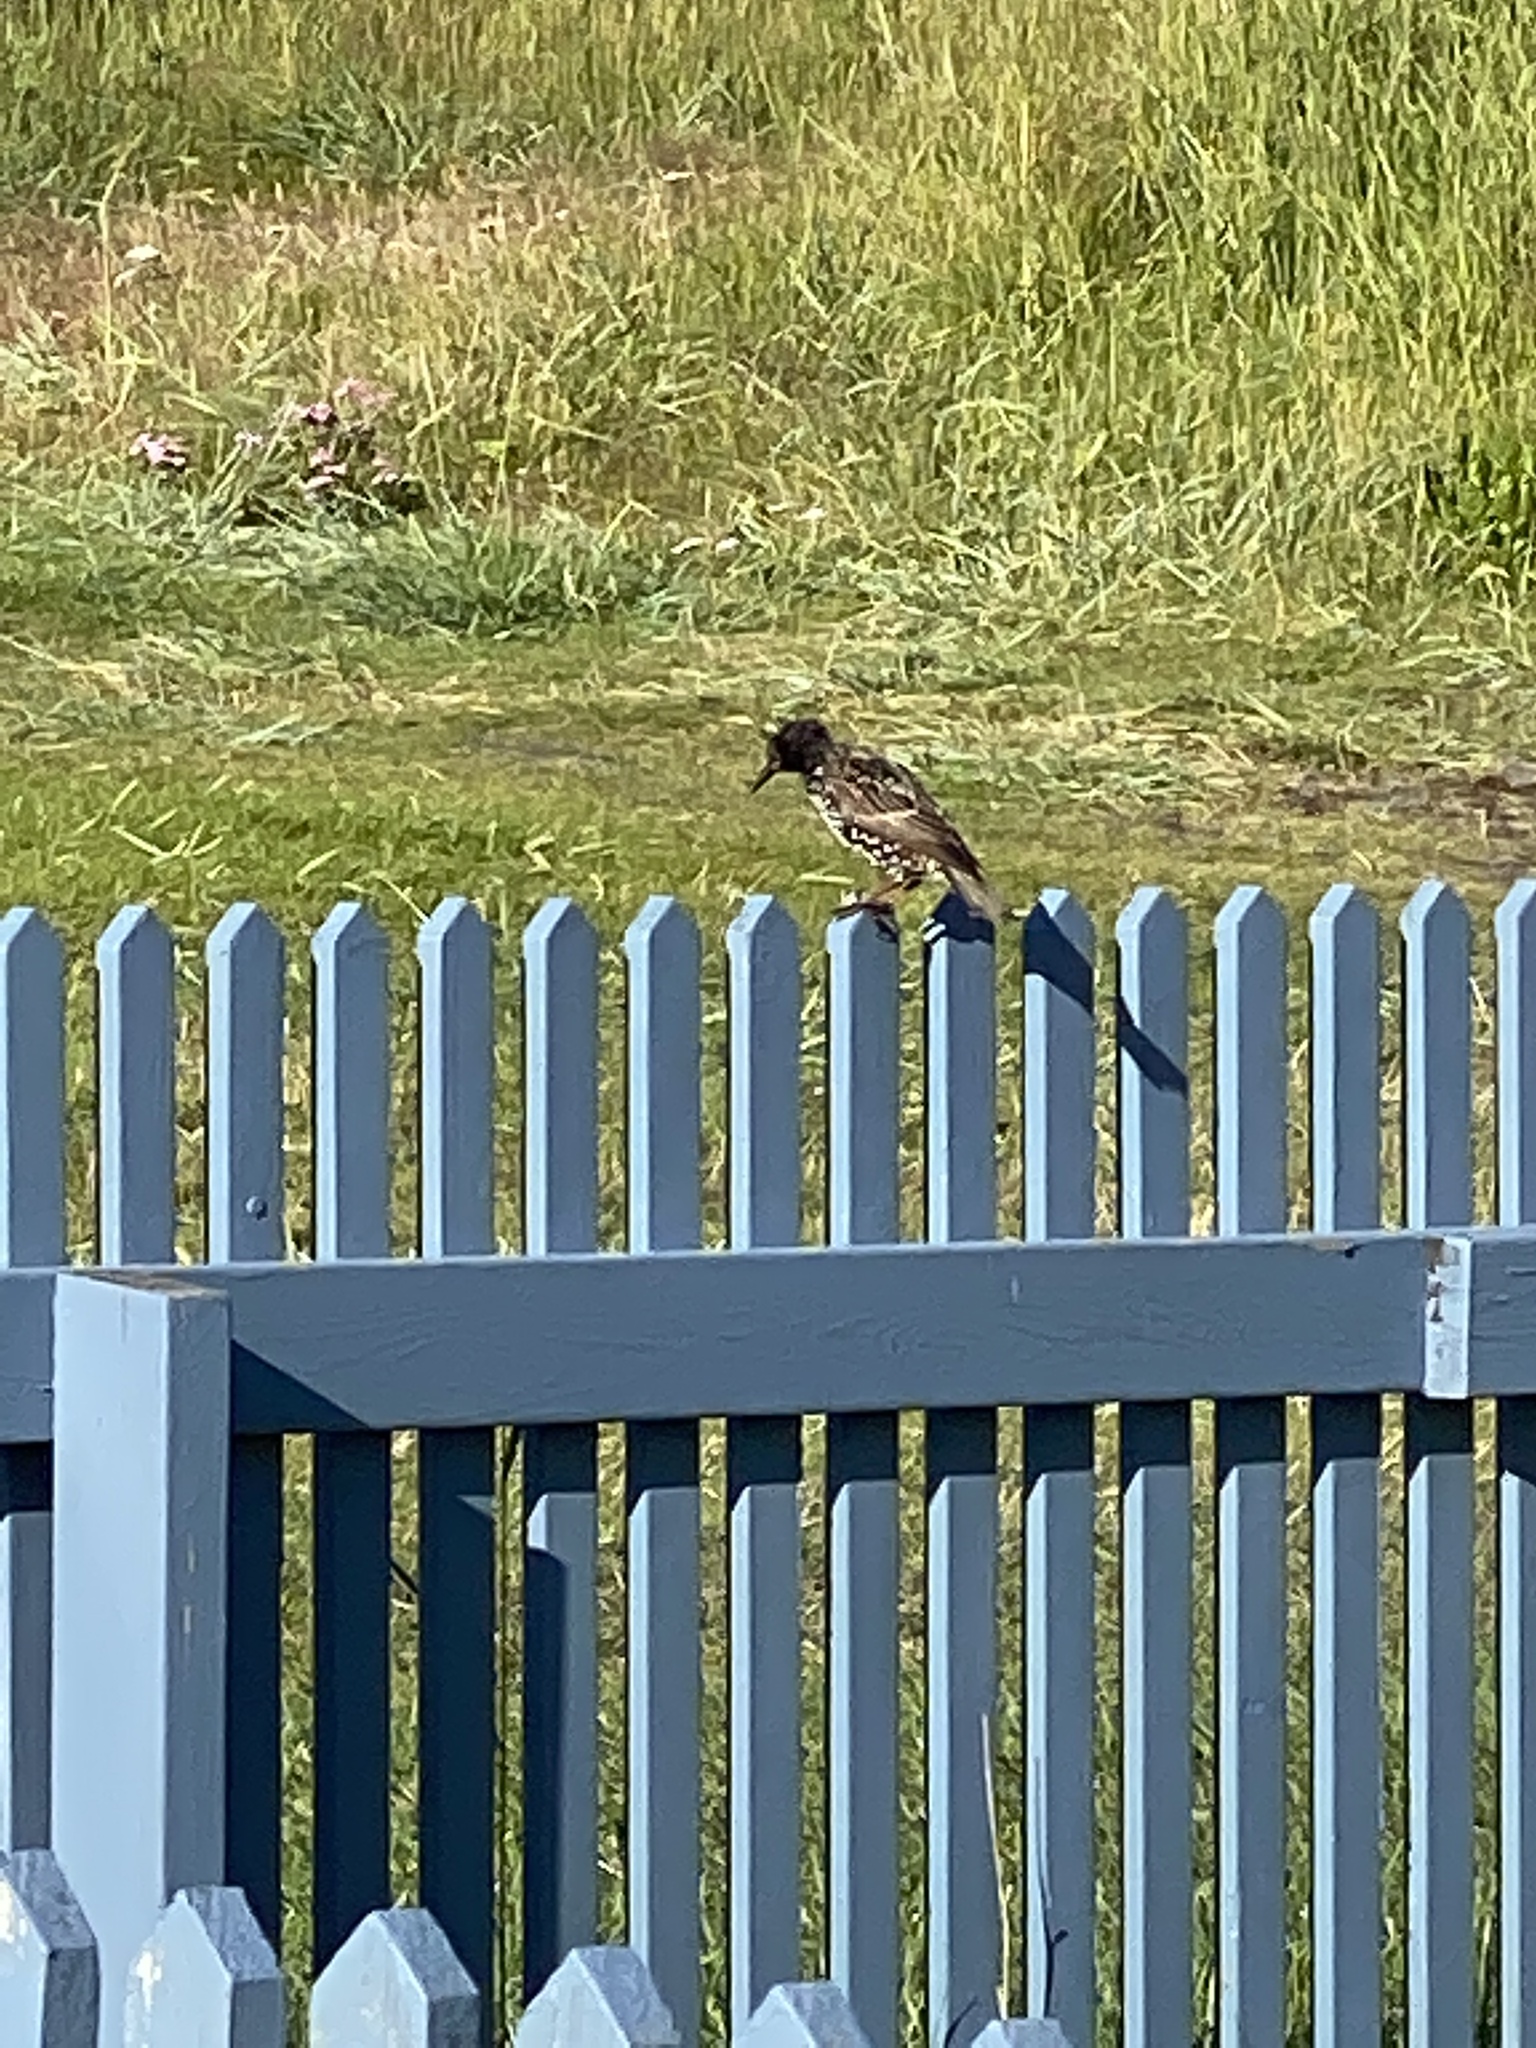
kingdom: Animalia
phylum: Chordata
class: Aves
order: Passeriformes
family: Sturnidae
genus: Sturnus
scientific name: Sturnus vulgaris
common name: Common starling
